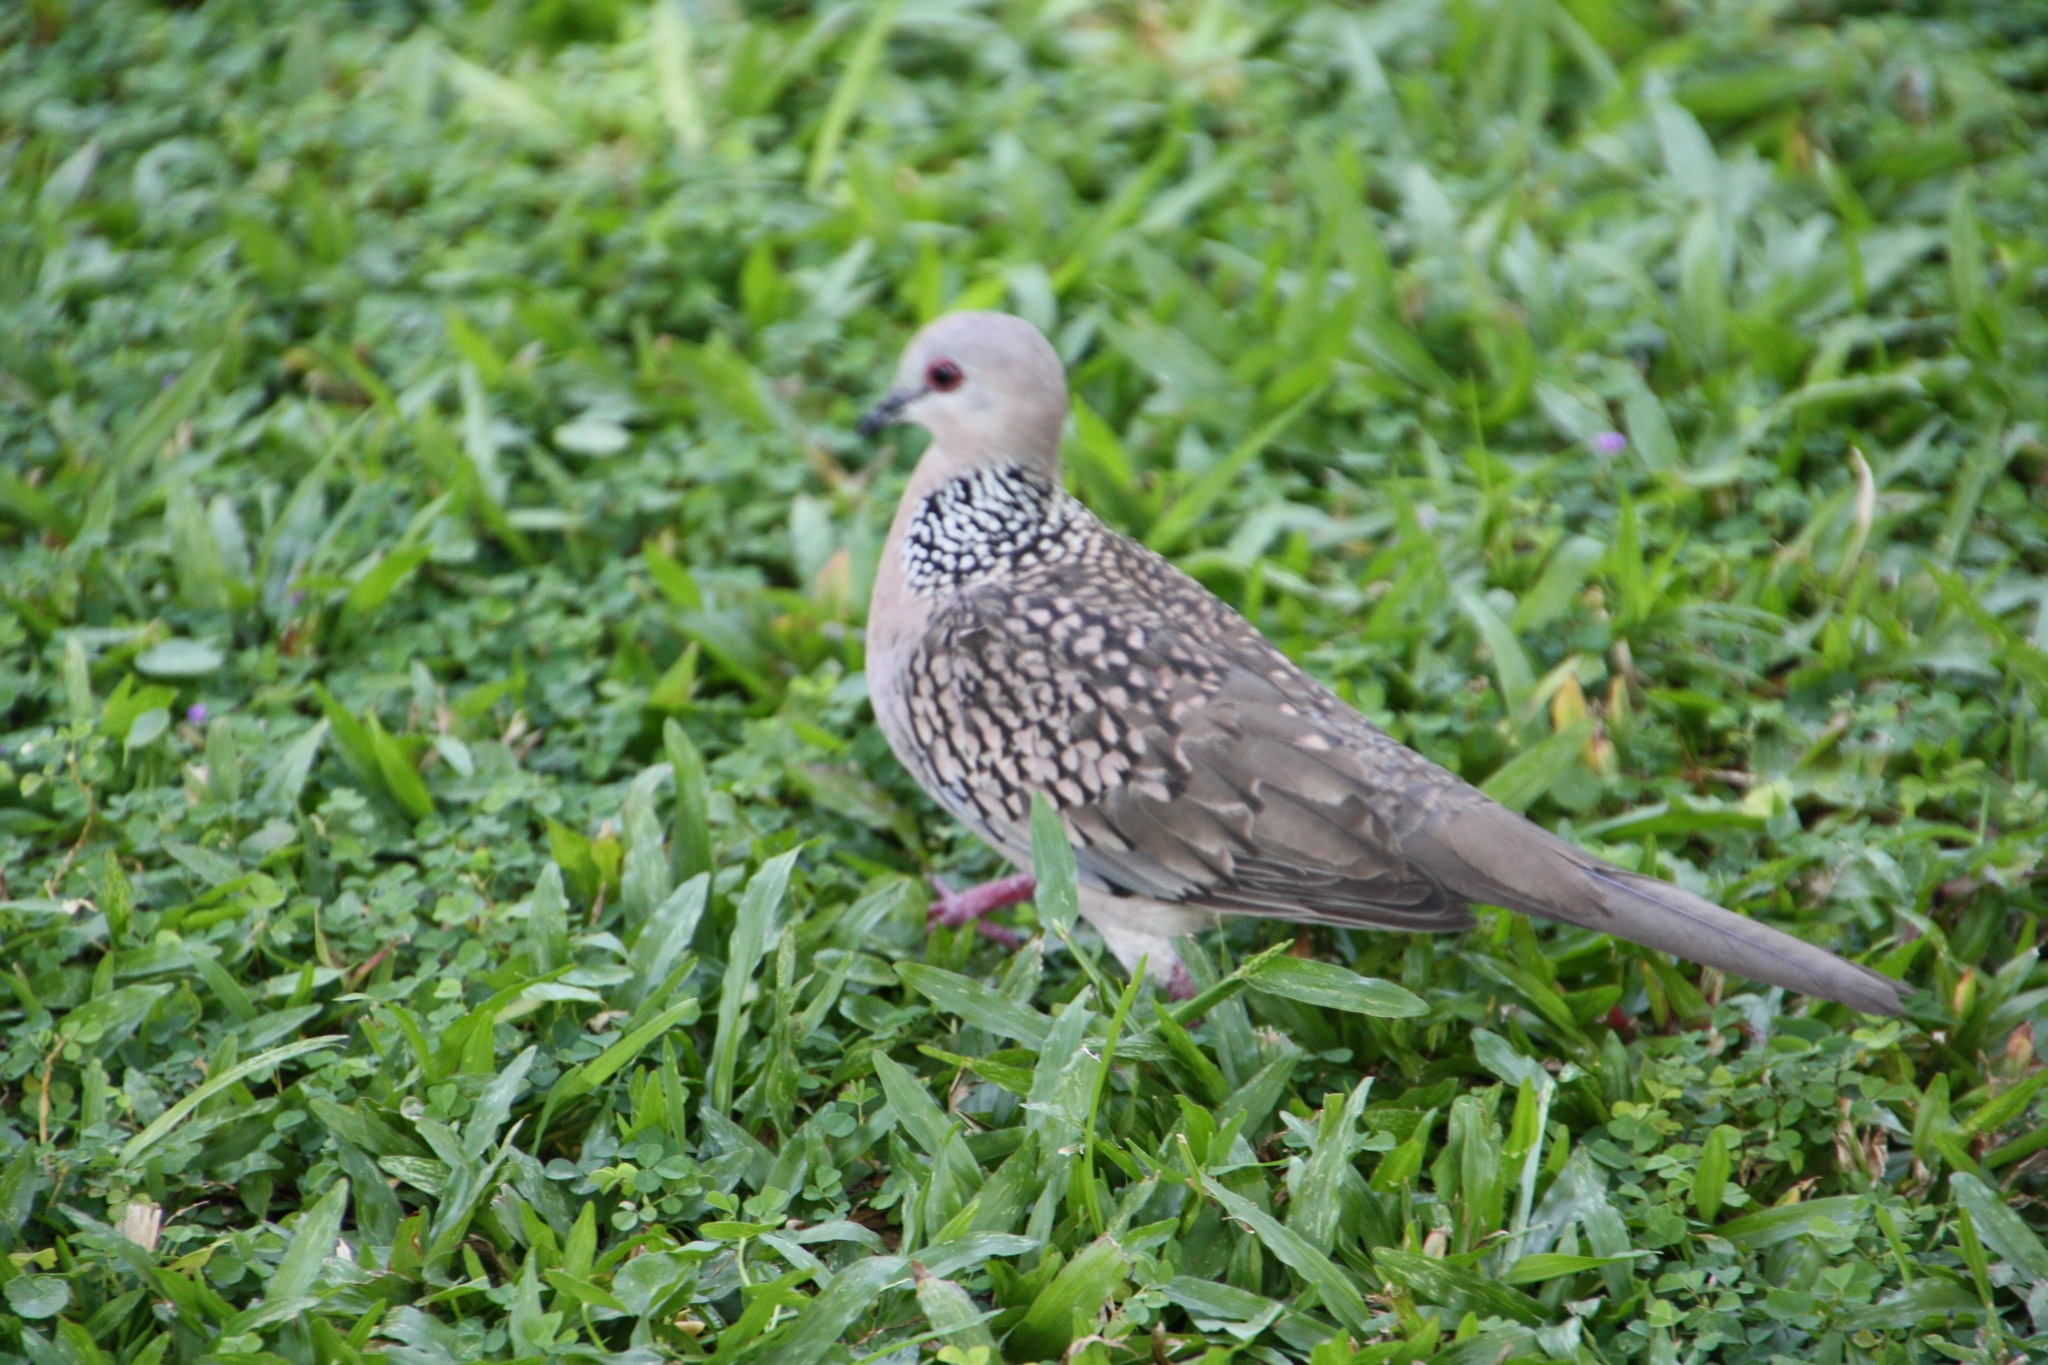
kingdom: Animalia
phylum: Chordata
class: Aves
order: Columbiformes
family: Columbidae
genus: Spilopelia
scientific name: Spilopelia chinensis
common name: Spotted dove
